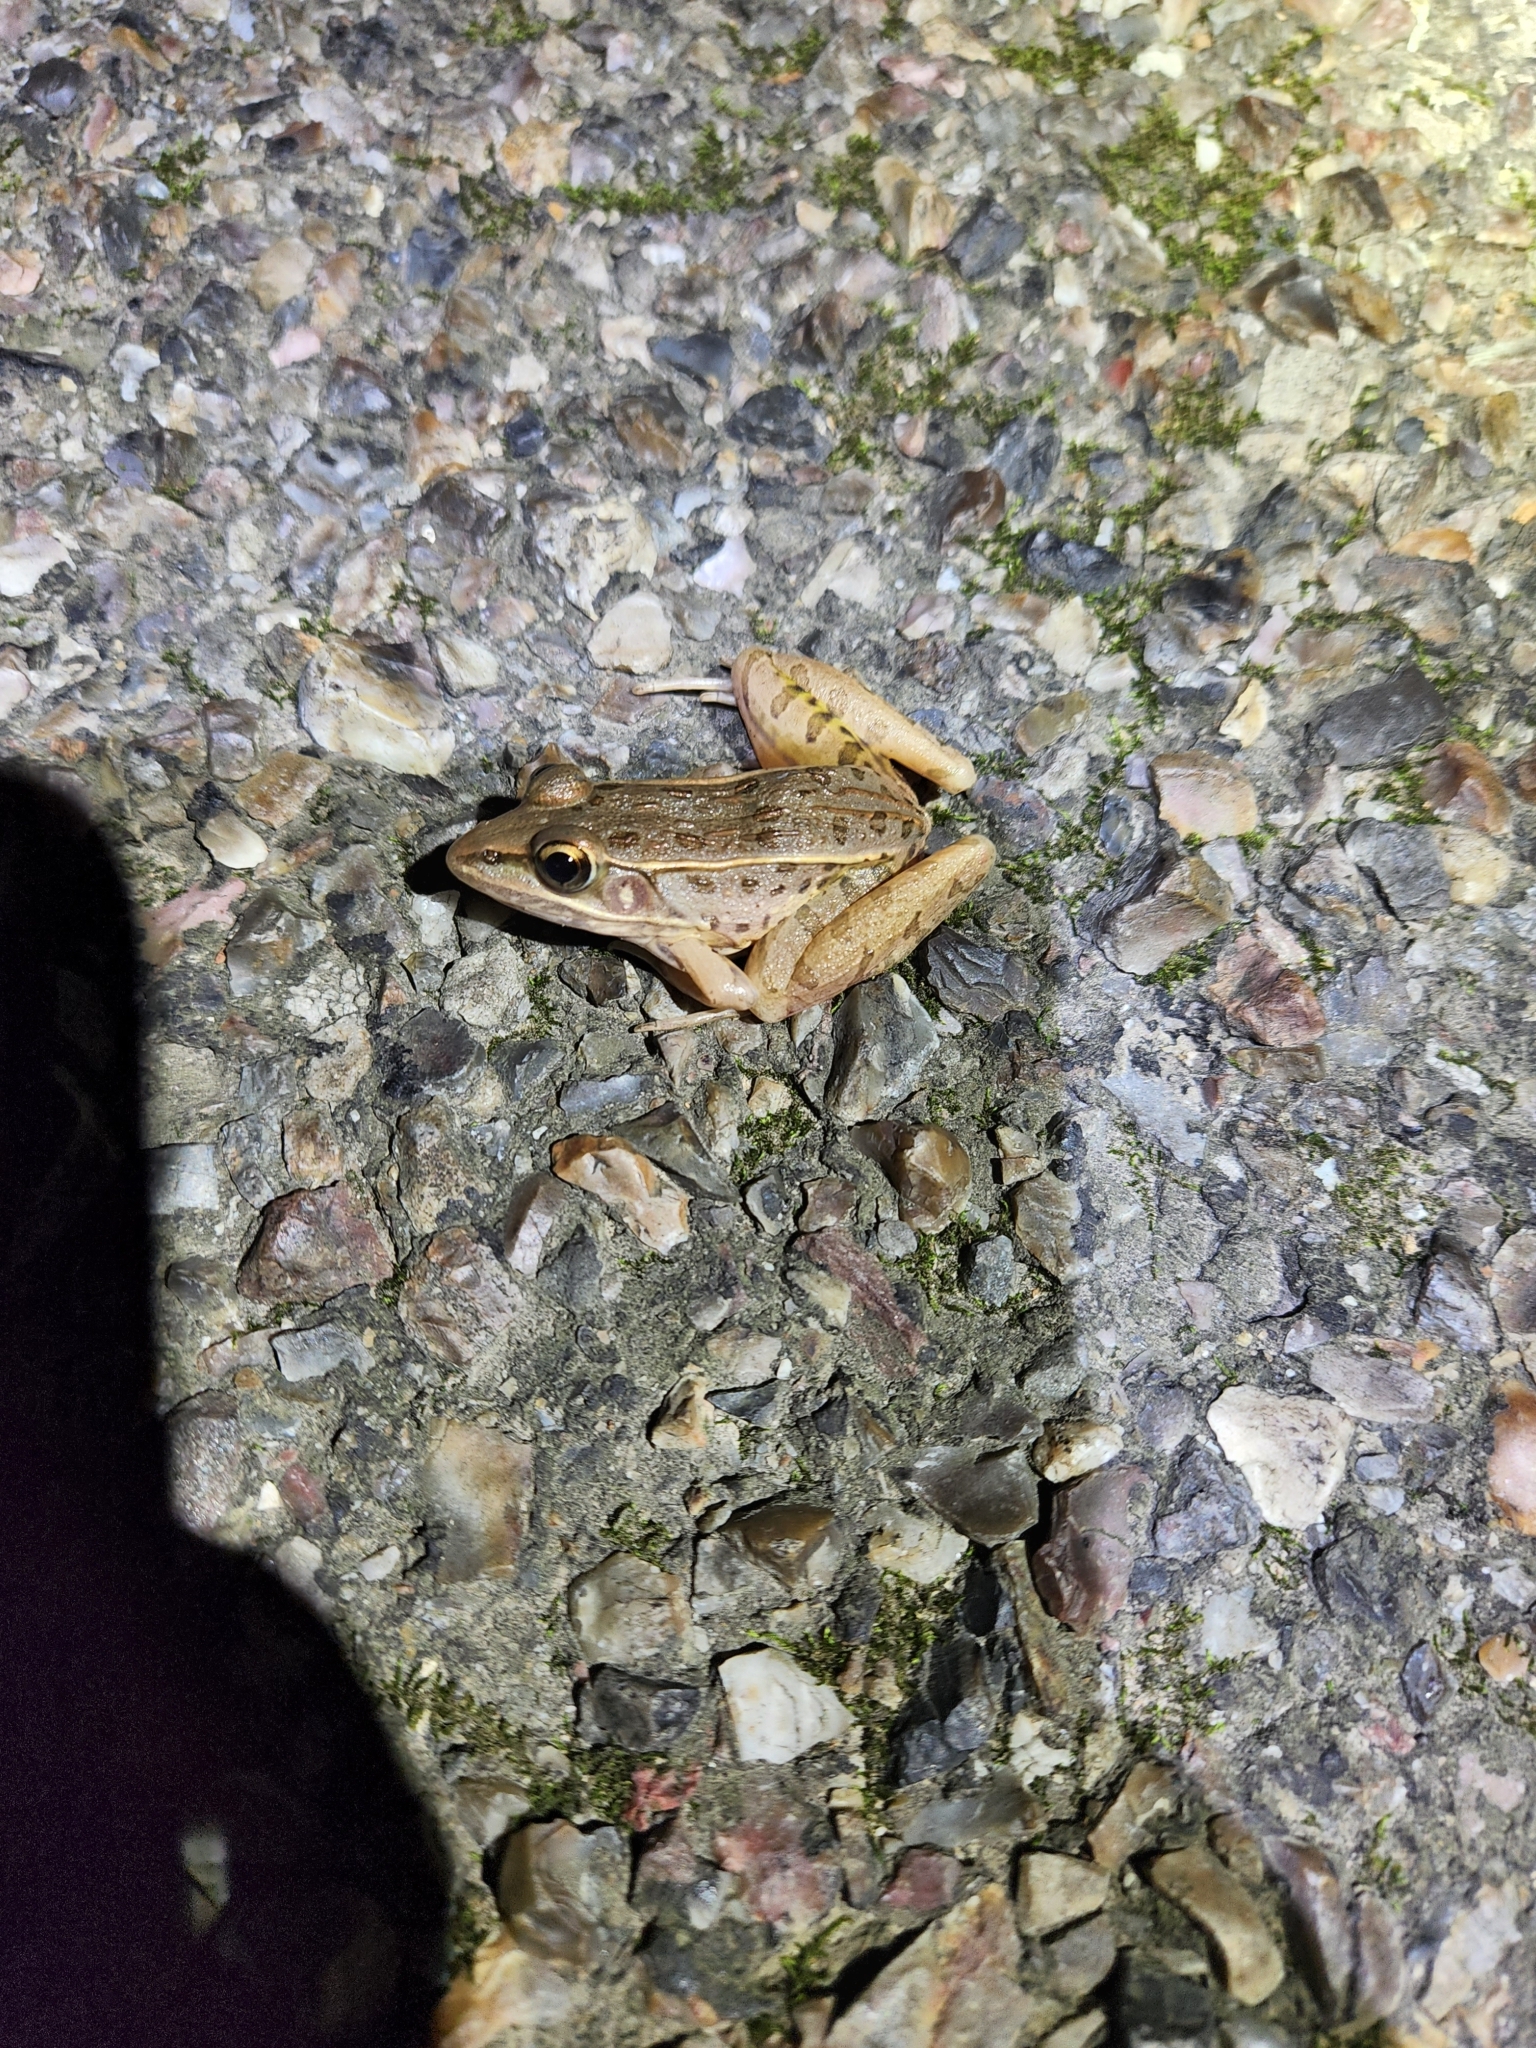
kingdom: Animalia
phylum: Chordata
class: Amphibia
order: Anura
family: Ranidae
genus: Lithobates
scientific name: Lithobates sphenocephalus
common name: Southern leopard frog
